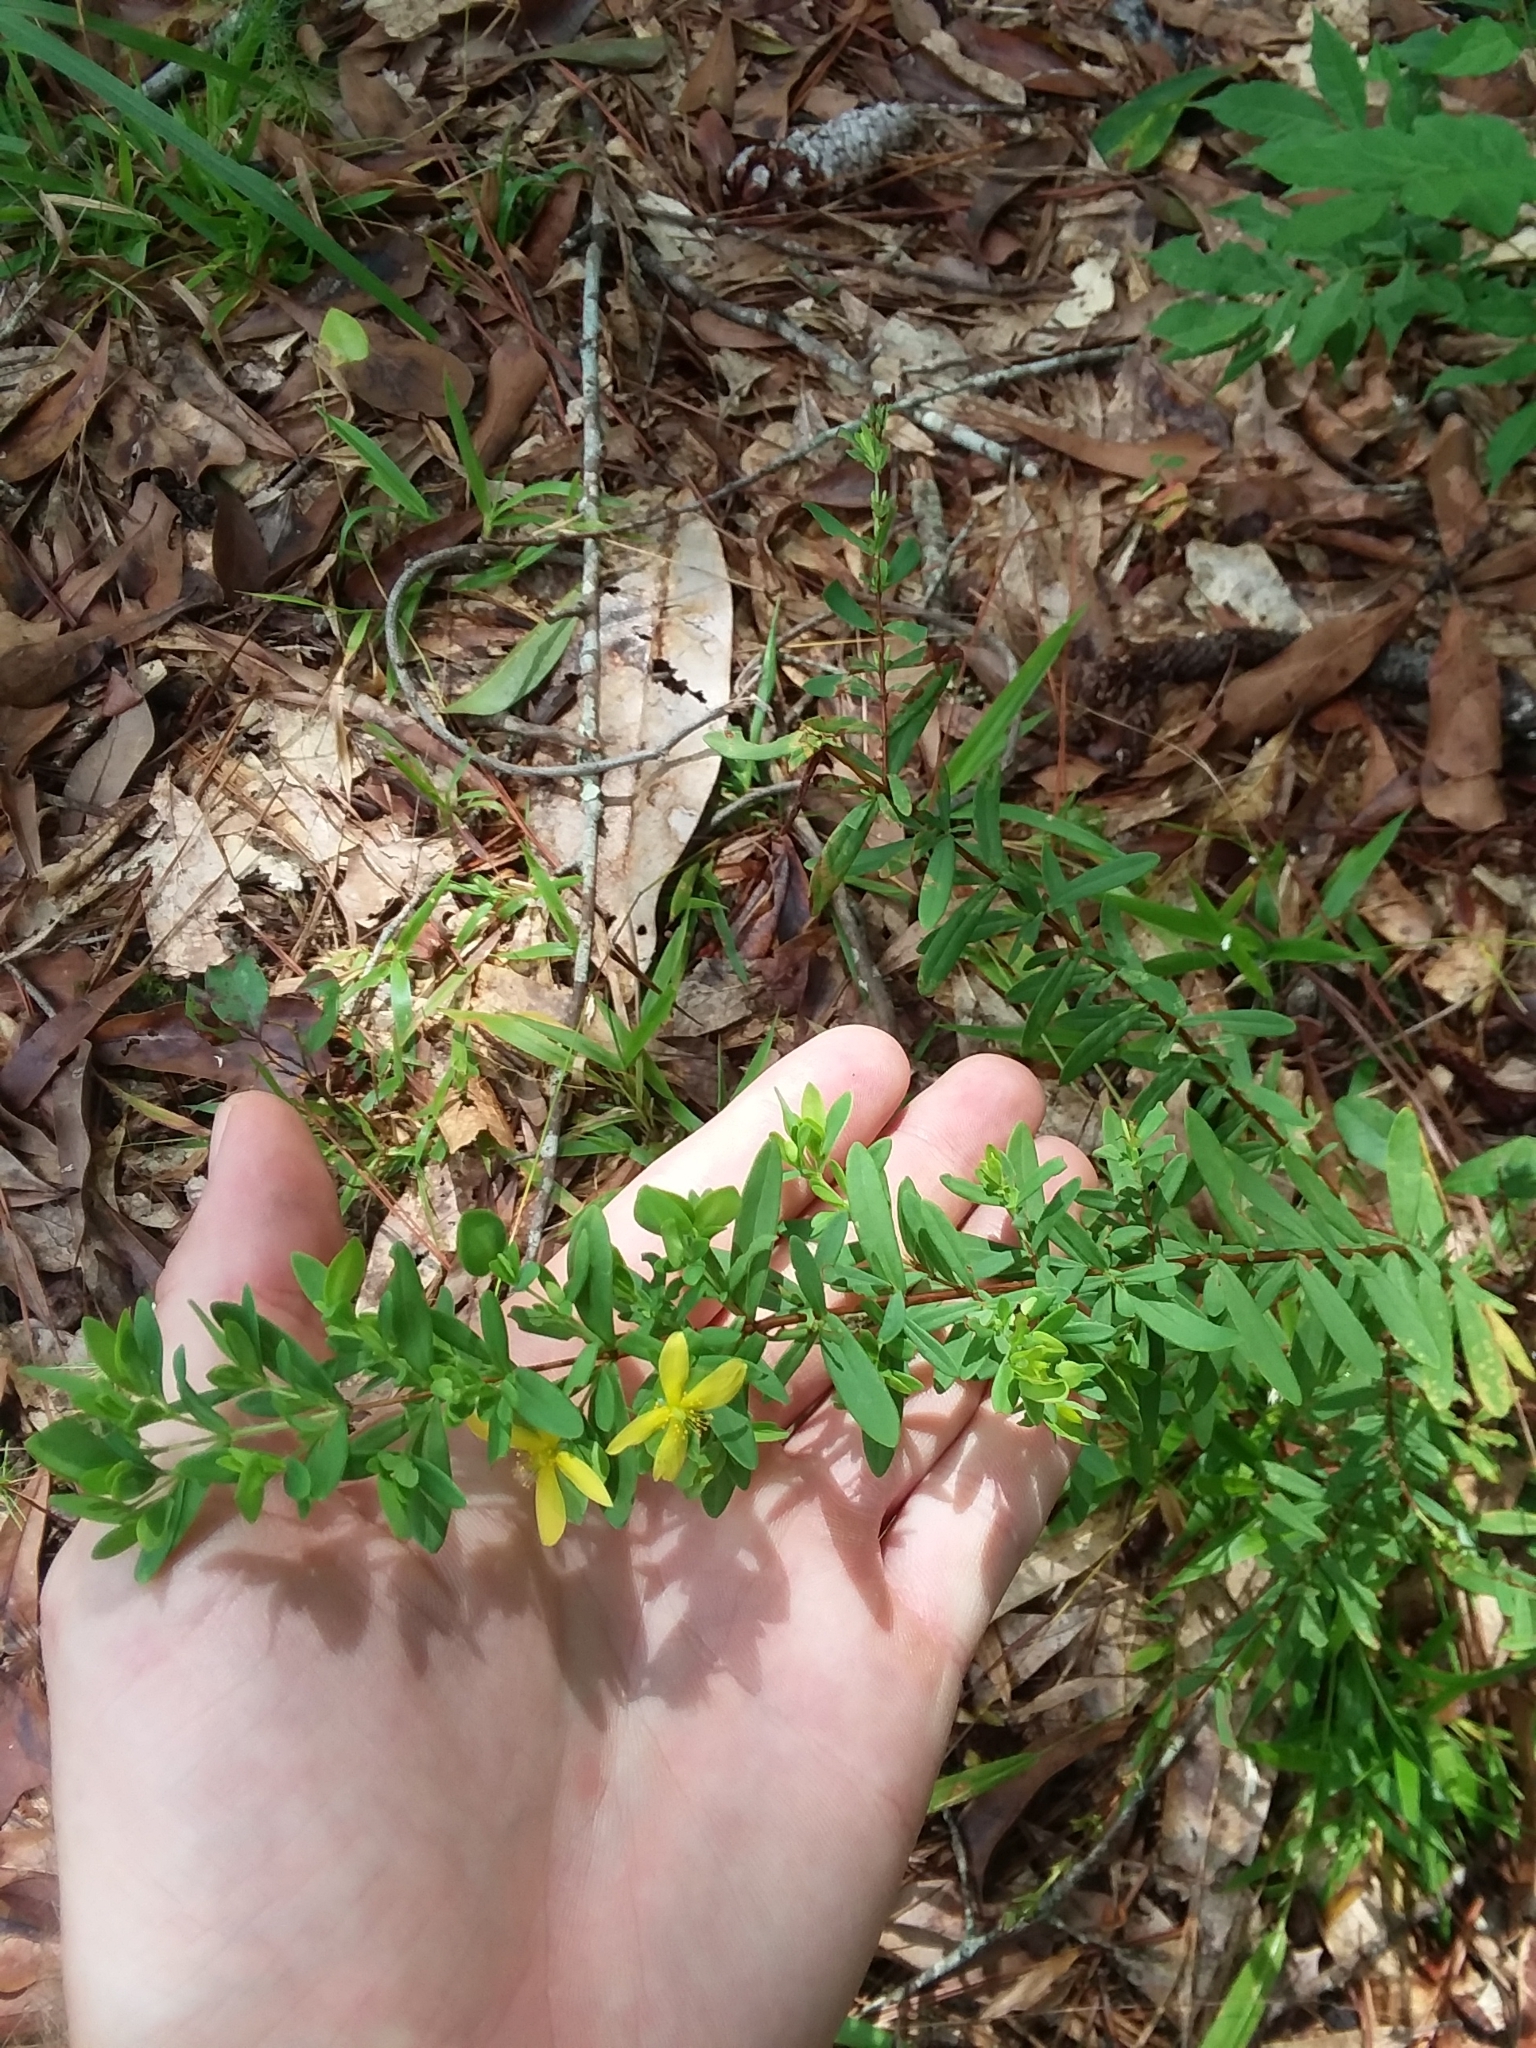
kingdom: Plantae
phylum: Tracheophyta
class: Magnoliopsida
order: Malpighiales
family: Hypericaceae
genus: Hypericum
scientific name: Hypericum hypericoides
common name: St. andrew's cross
